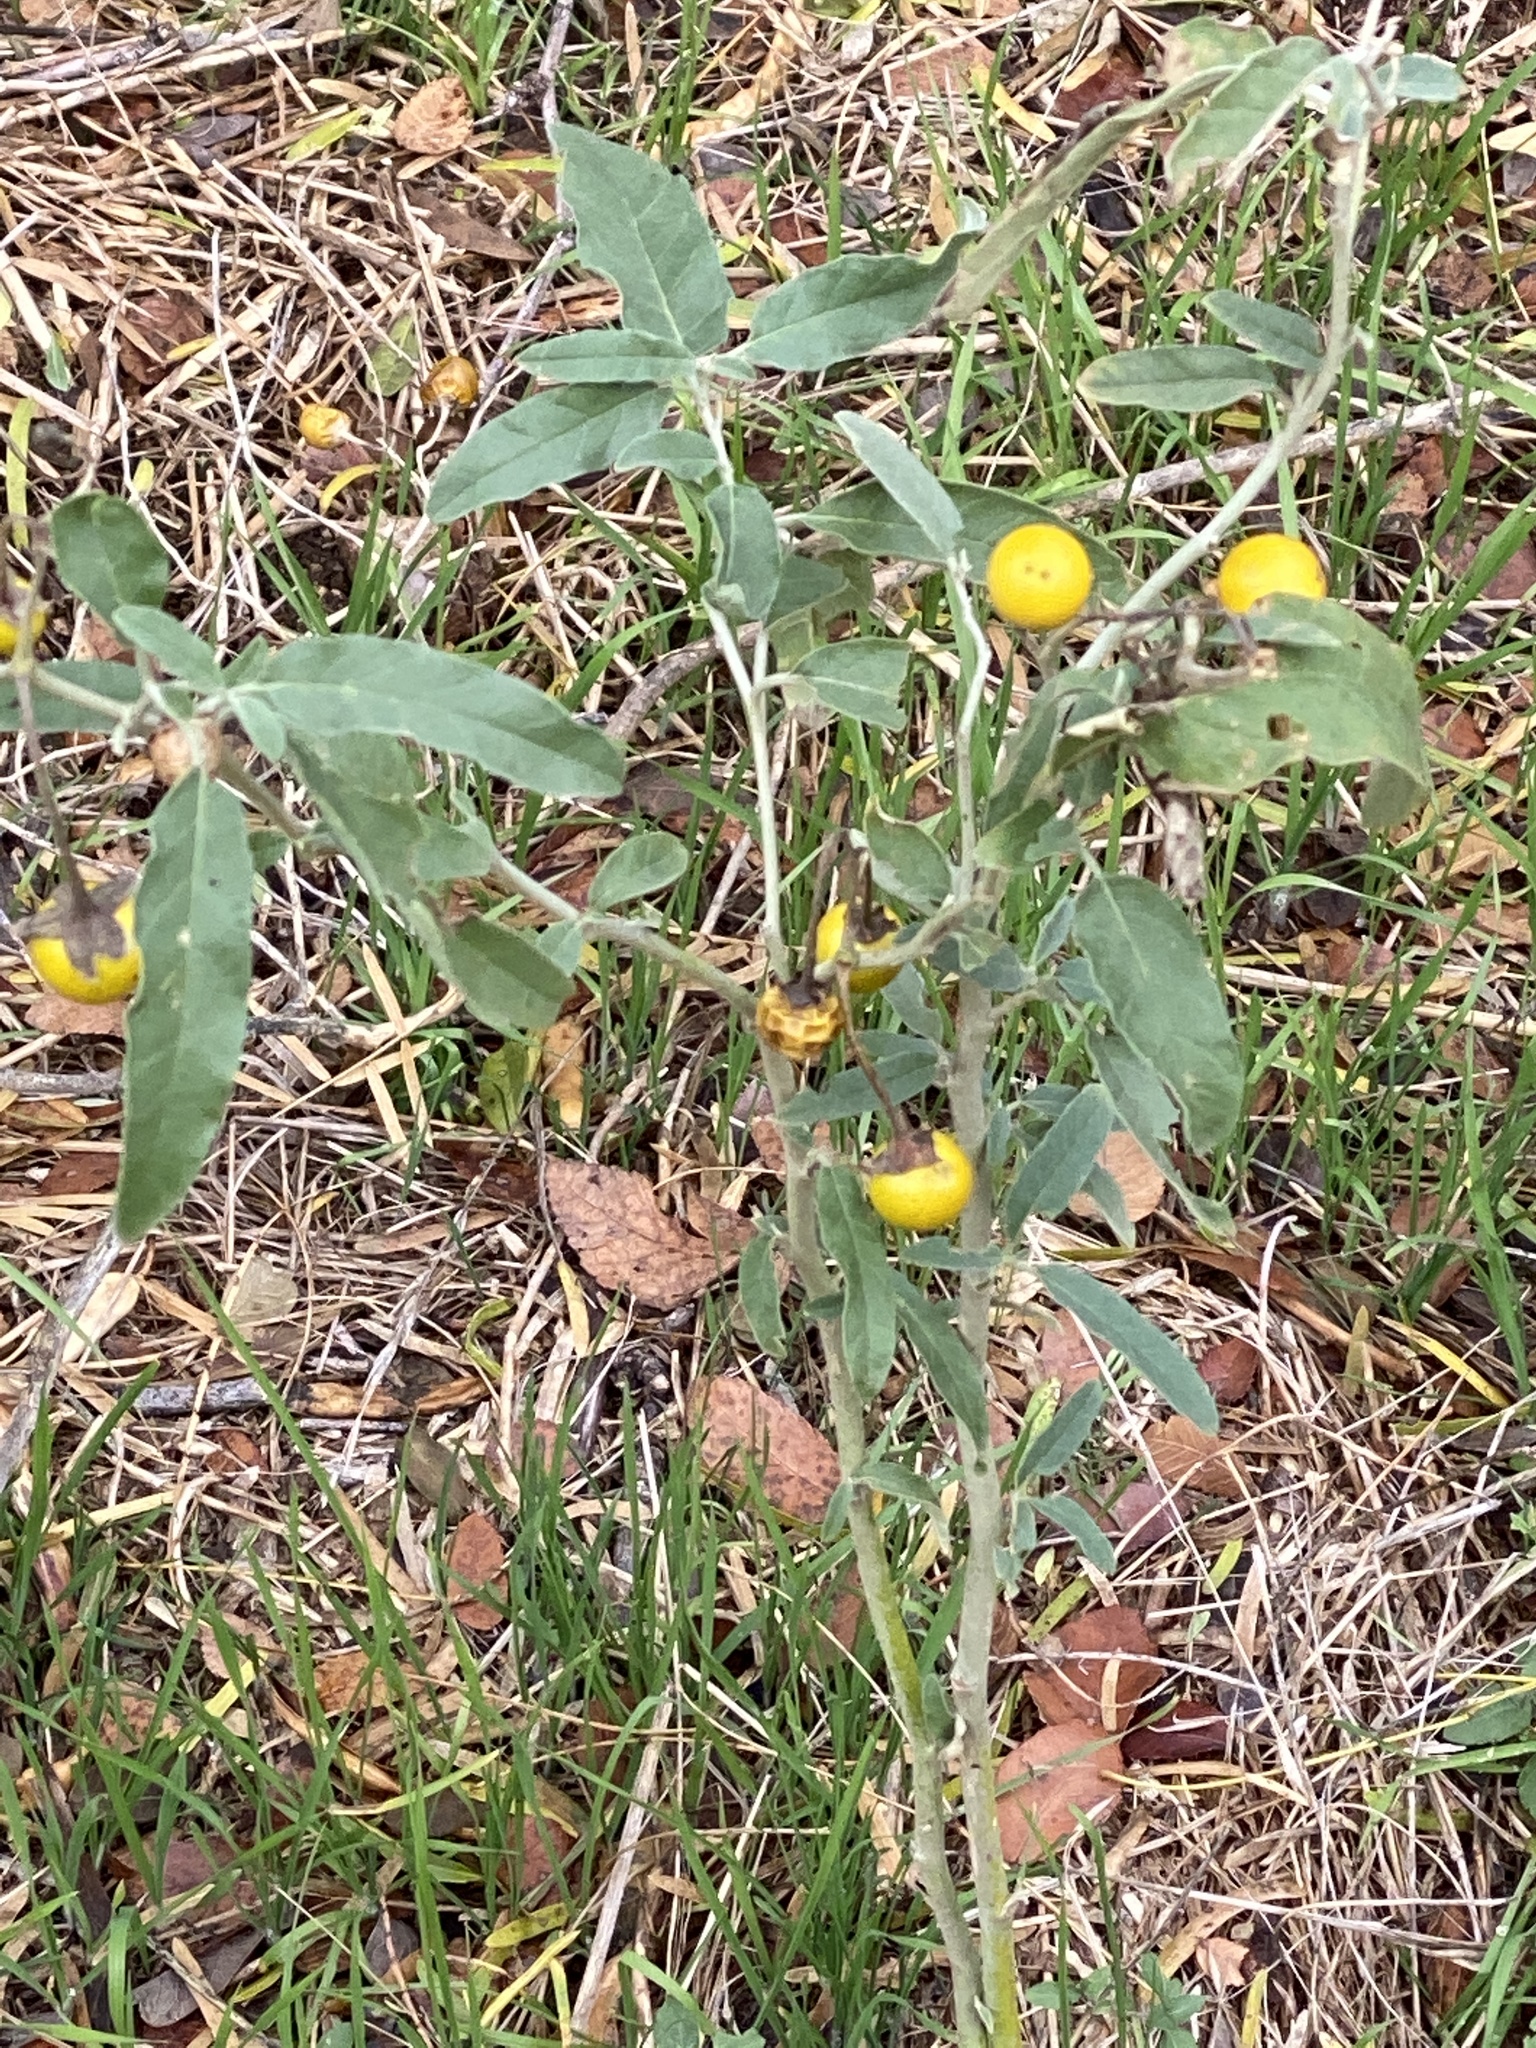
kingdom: Plantae
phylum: Tracheophyta
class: Magnoliopsida
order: Solanales
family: Solanaceae
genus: Solanum
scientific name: Solanum elaeagnifolium
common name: Silverleaf nightshade
